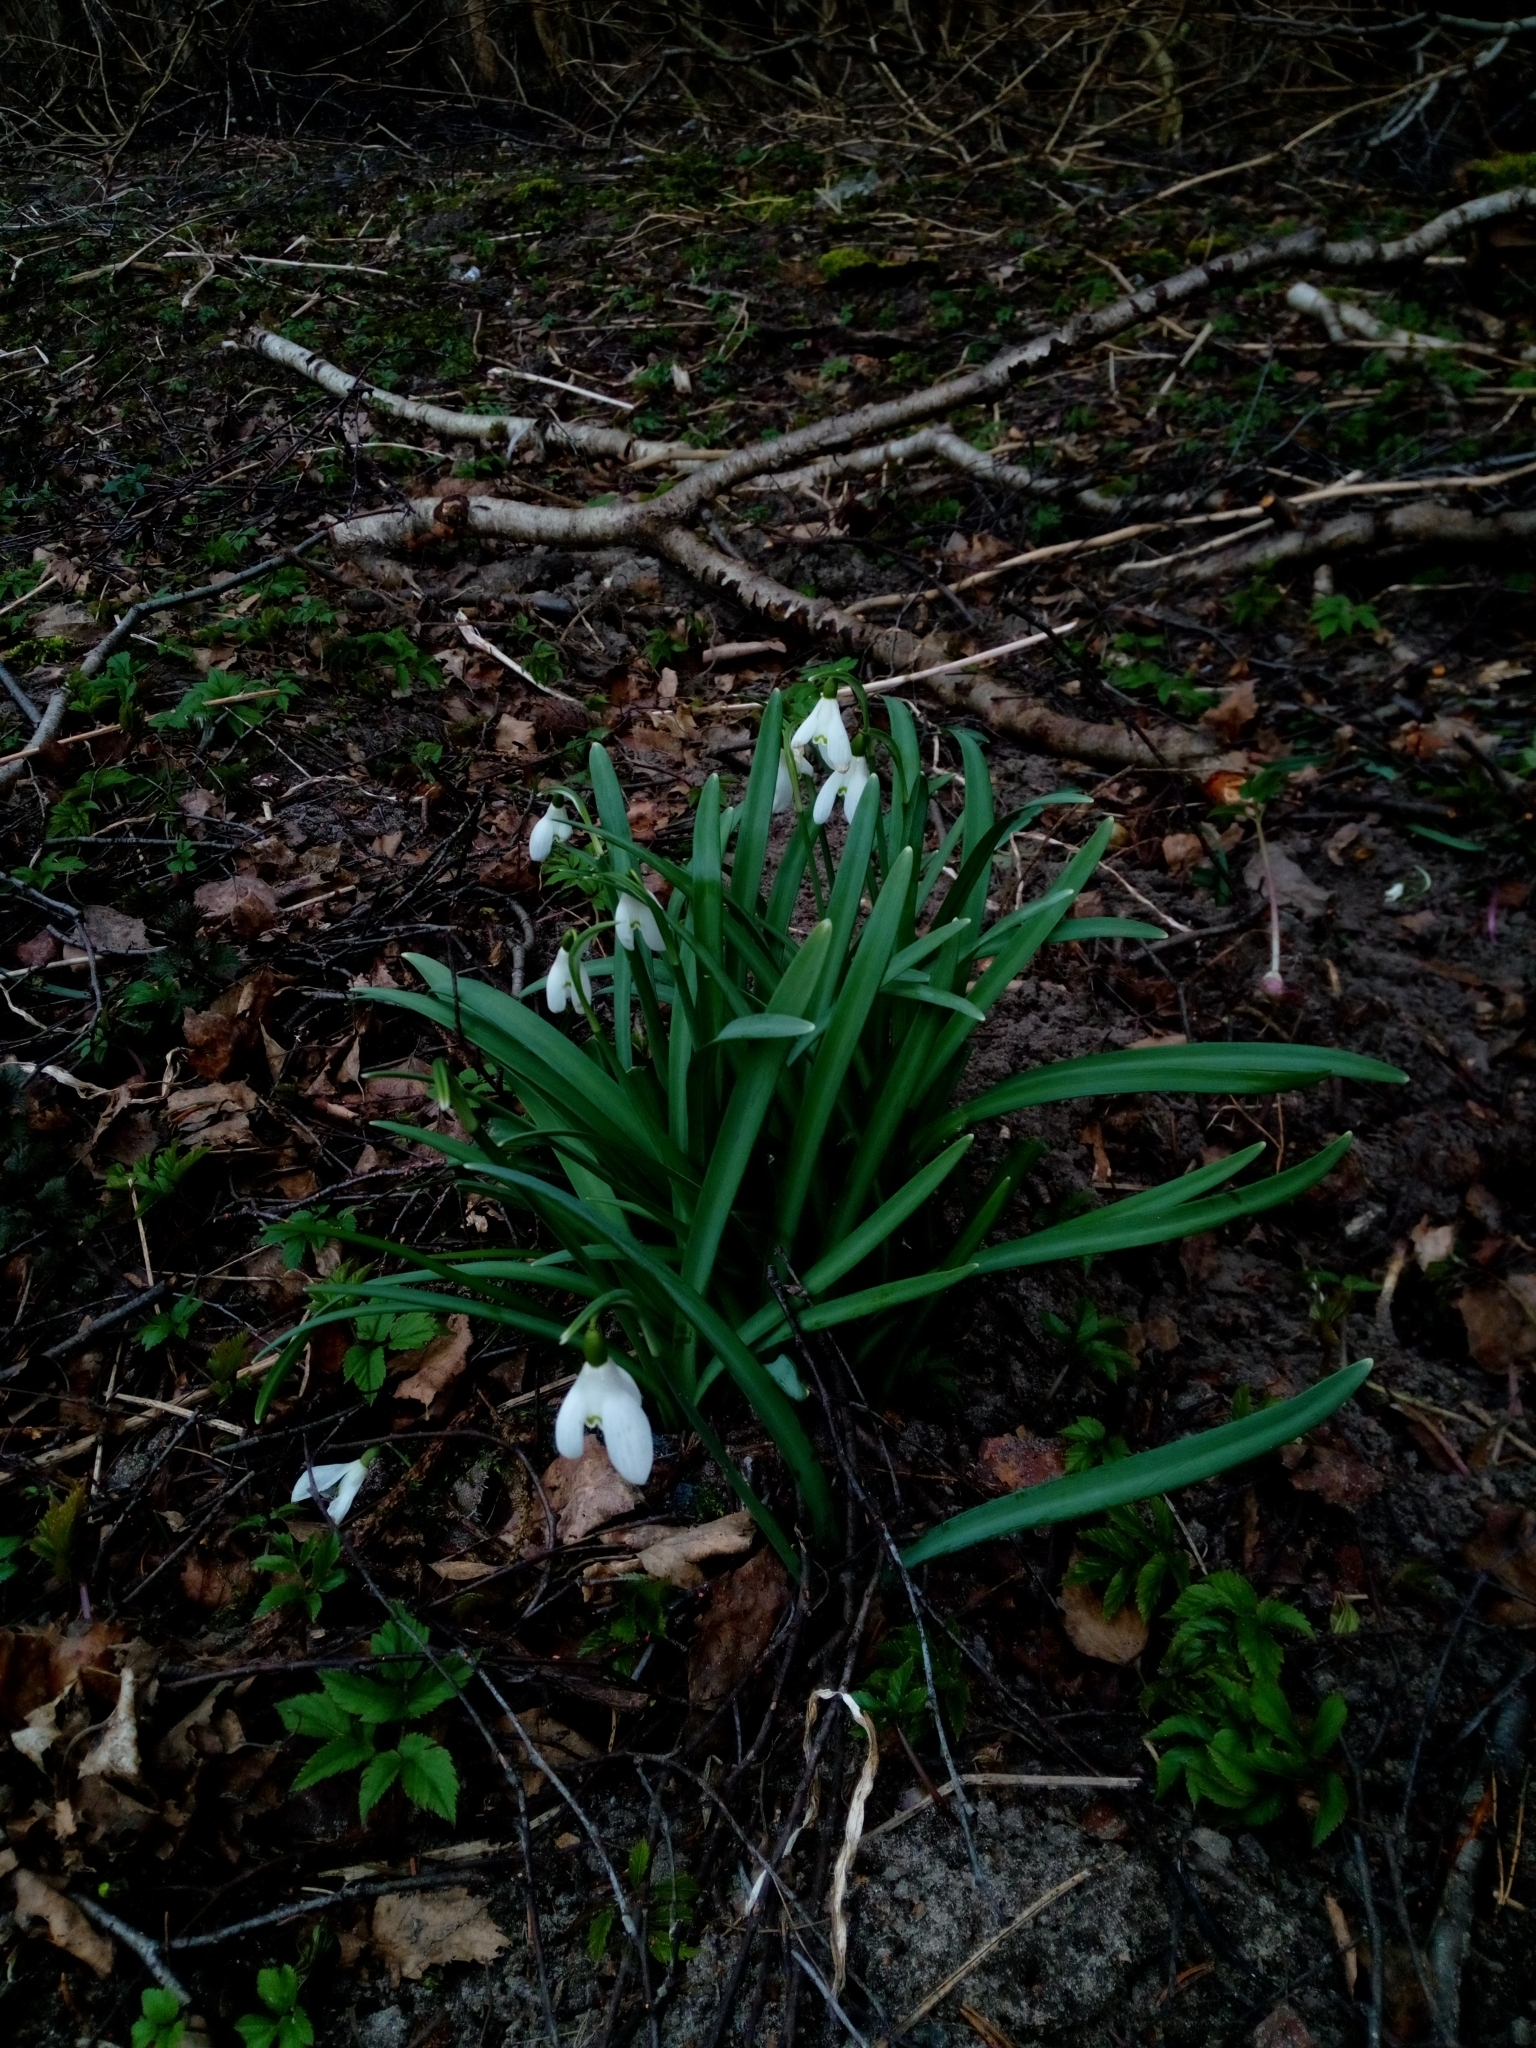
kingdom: Plantae
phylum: Tracheophyta
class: Liliopsida
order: Asparagales
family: Amaryllidaceae
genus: Galanthus
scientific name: Galanthus nivalis
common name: Snowdrop
